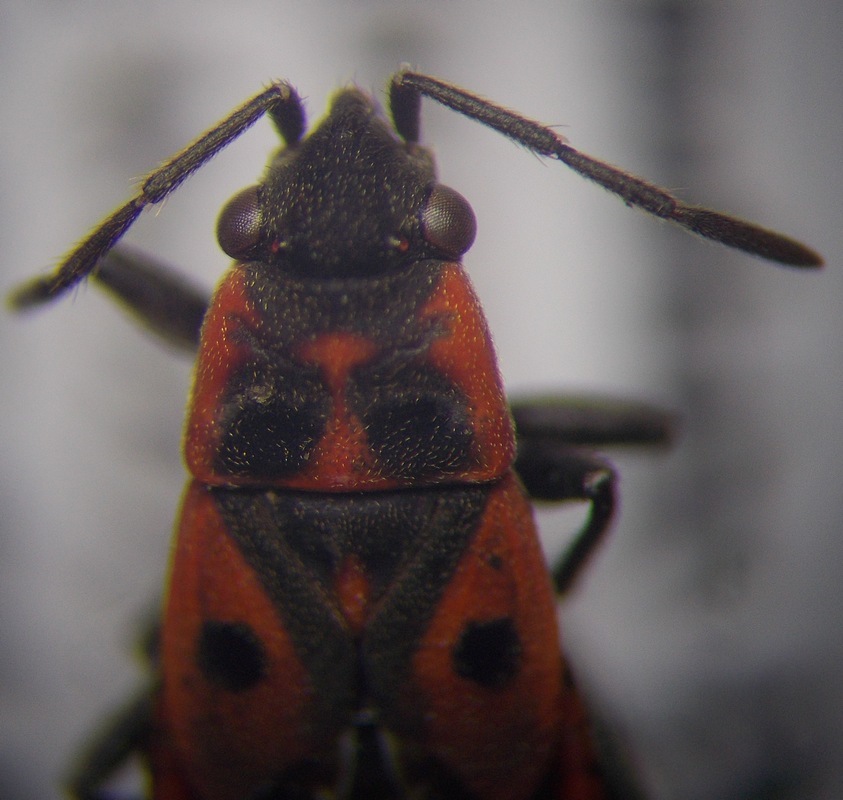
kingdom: Animalia
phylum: Arthropoda
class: Insecta
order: Hemiptera
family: Lygaeidae
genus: Melanocoryphus
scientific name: Melanocoryphus tristrami
